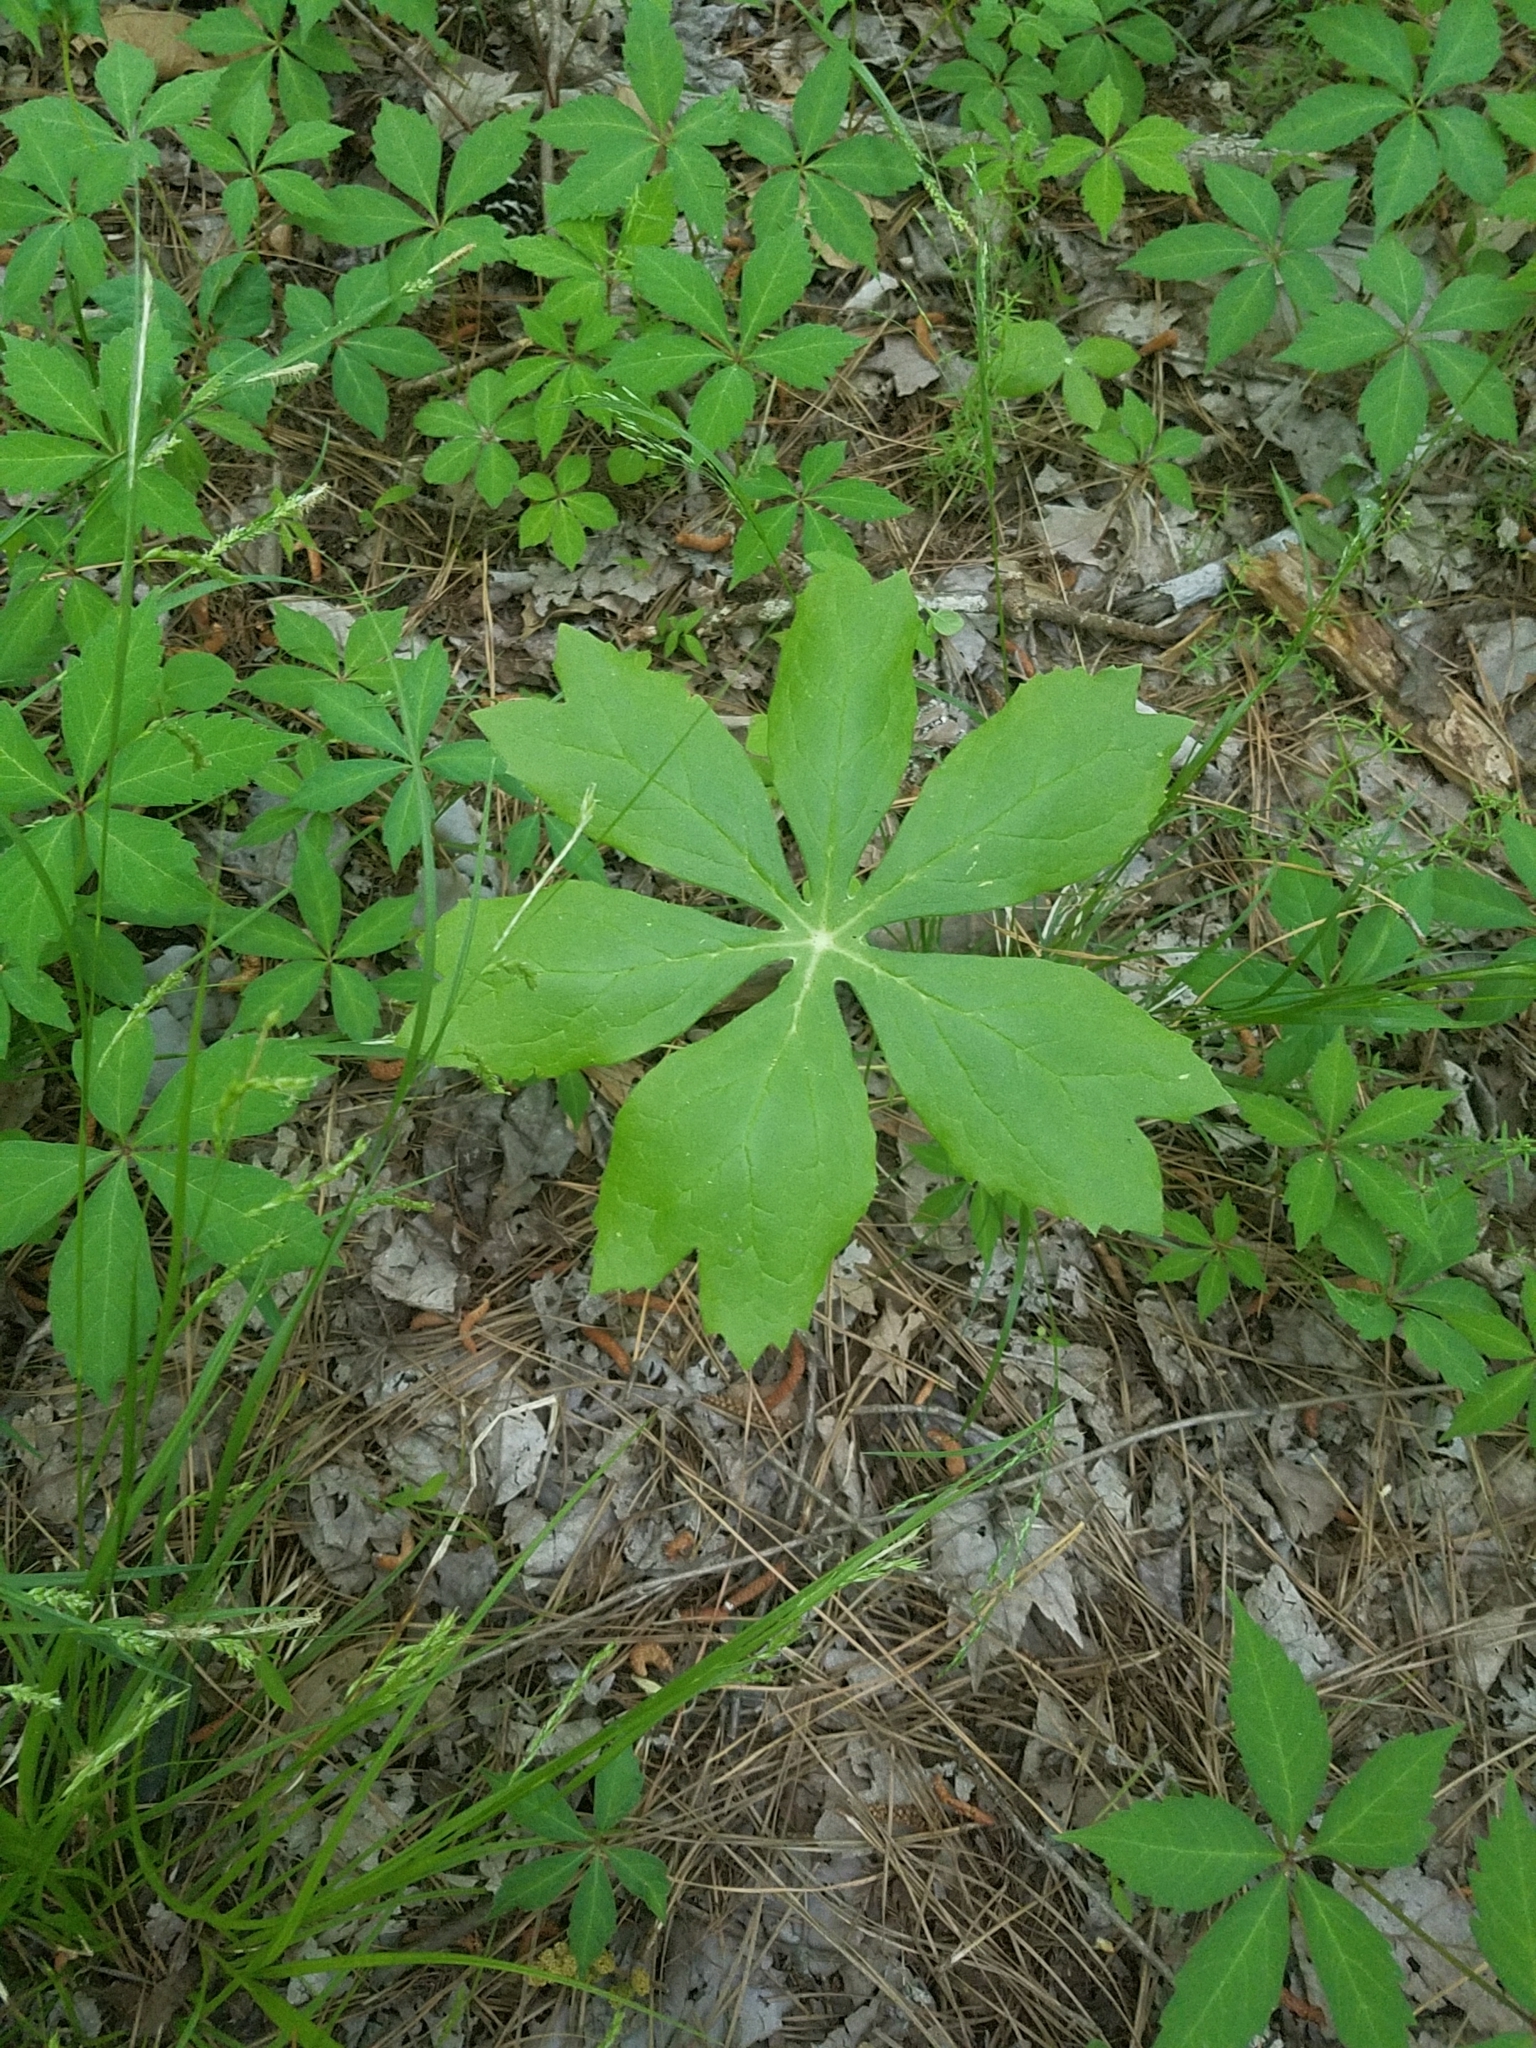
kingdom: Plantae
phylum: Tracheophyta
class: Magnoliopsida
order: Ranunculales
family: Berberidaceae
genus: Podophyllum
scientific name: Podophyllum peltatum
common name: Wild mandrake
